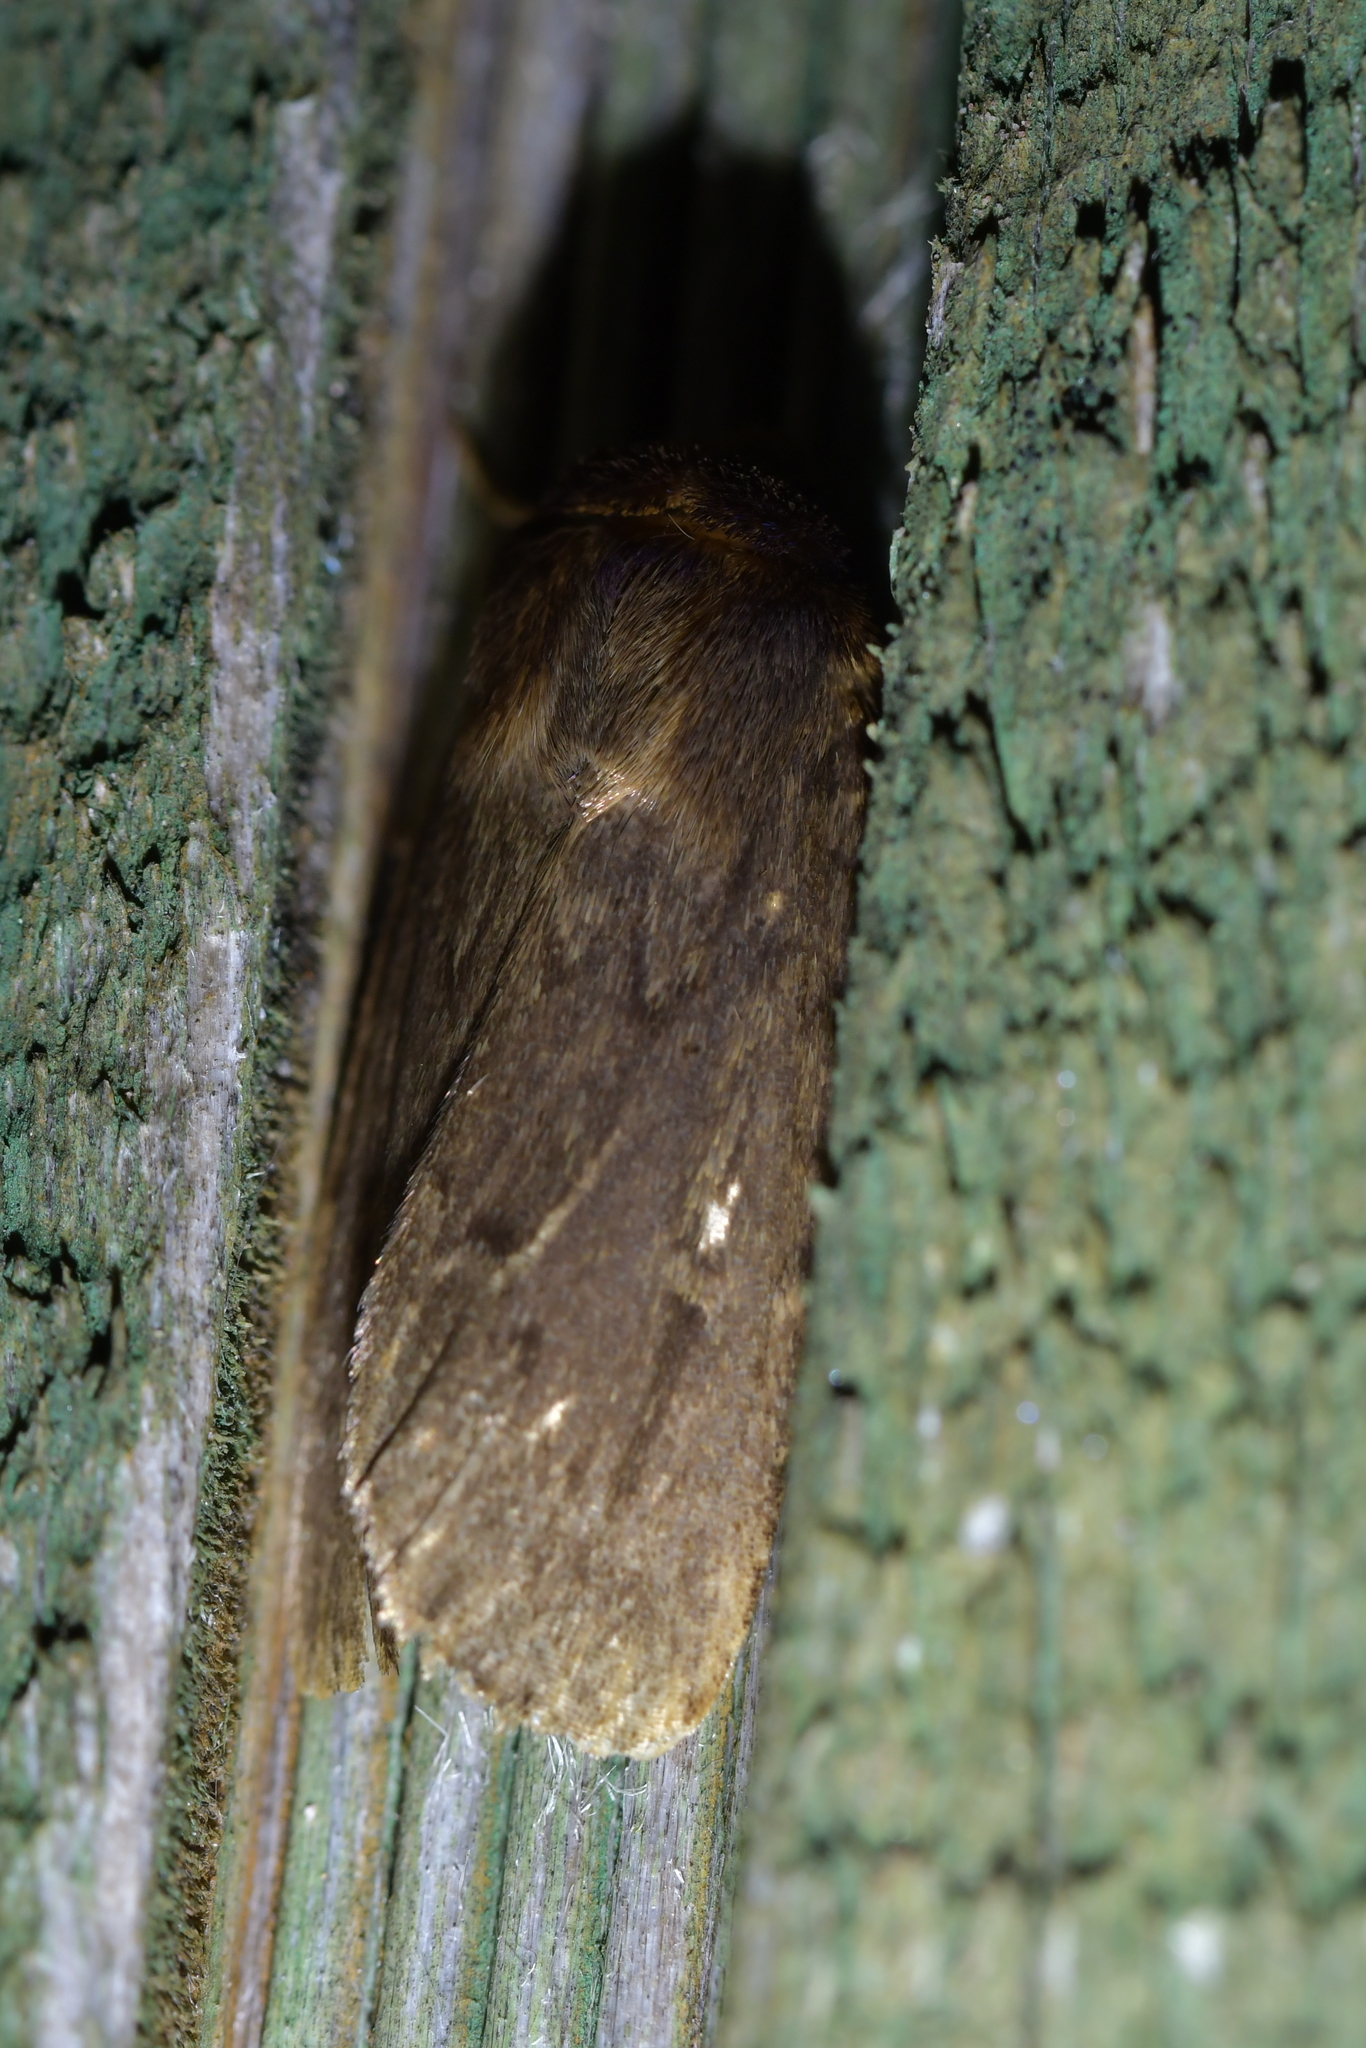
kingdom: Animalia
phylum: Arthropoda
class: Insecta
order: Lepidoptera
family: Noctuidae
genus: Bityla
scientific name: Bityla defigurata
